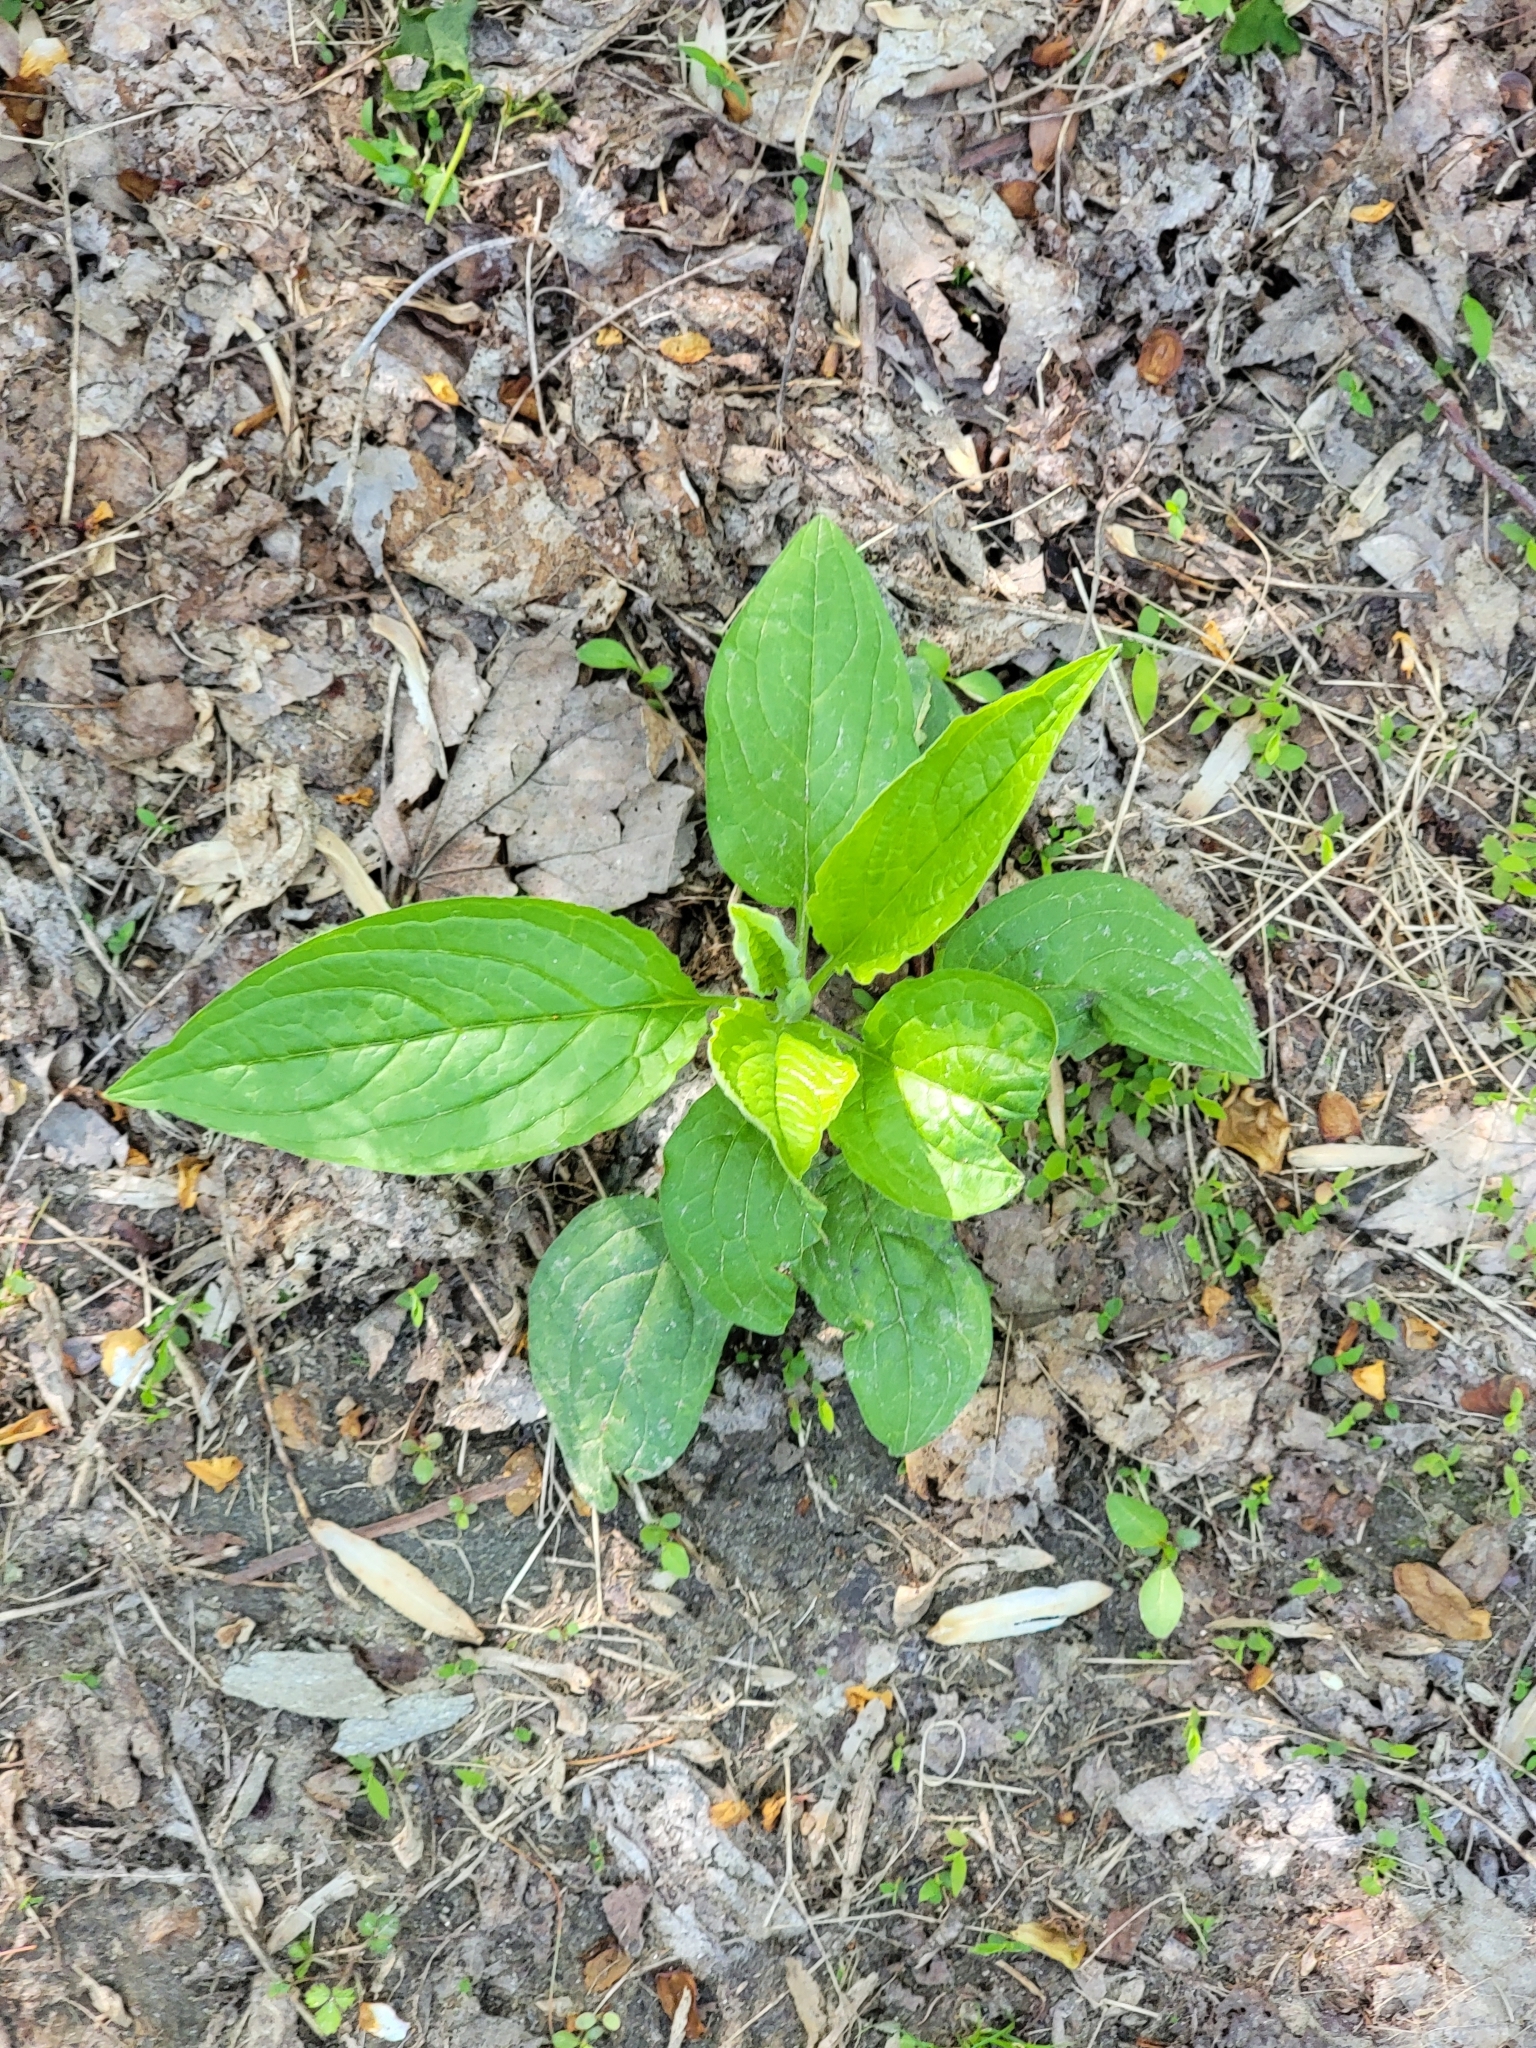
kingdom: Plantae
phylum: Tracheophyta
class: Magnoliopsida
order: Boraginales
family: Boraginaceae
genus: Hackelia
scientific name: Hackelia virginiana
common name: Beggar's-lice
